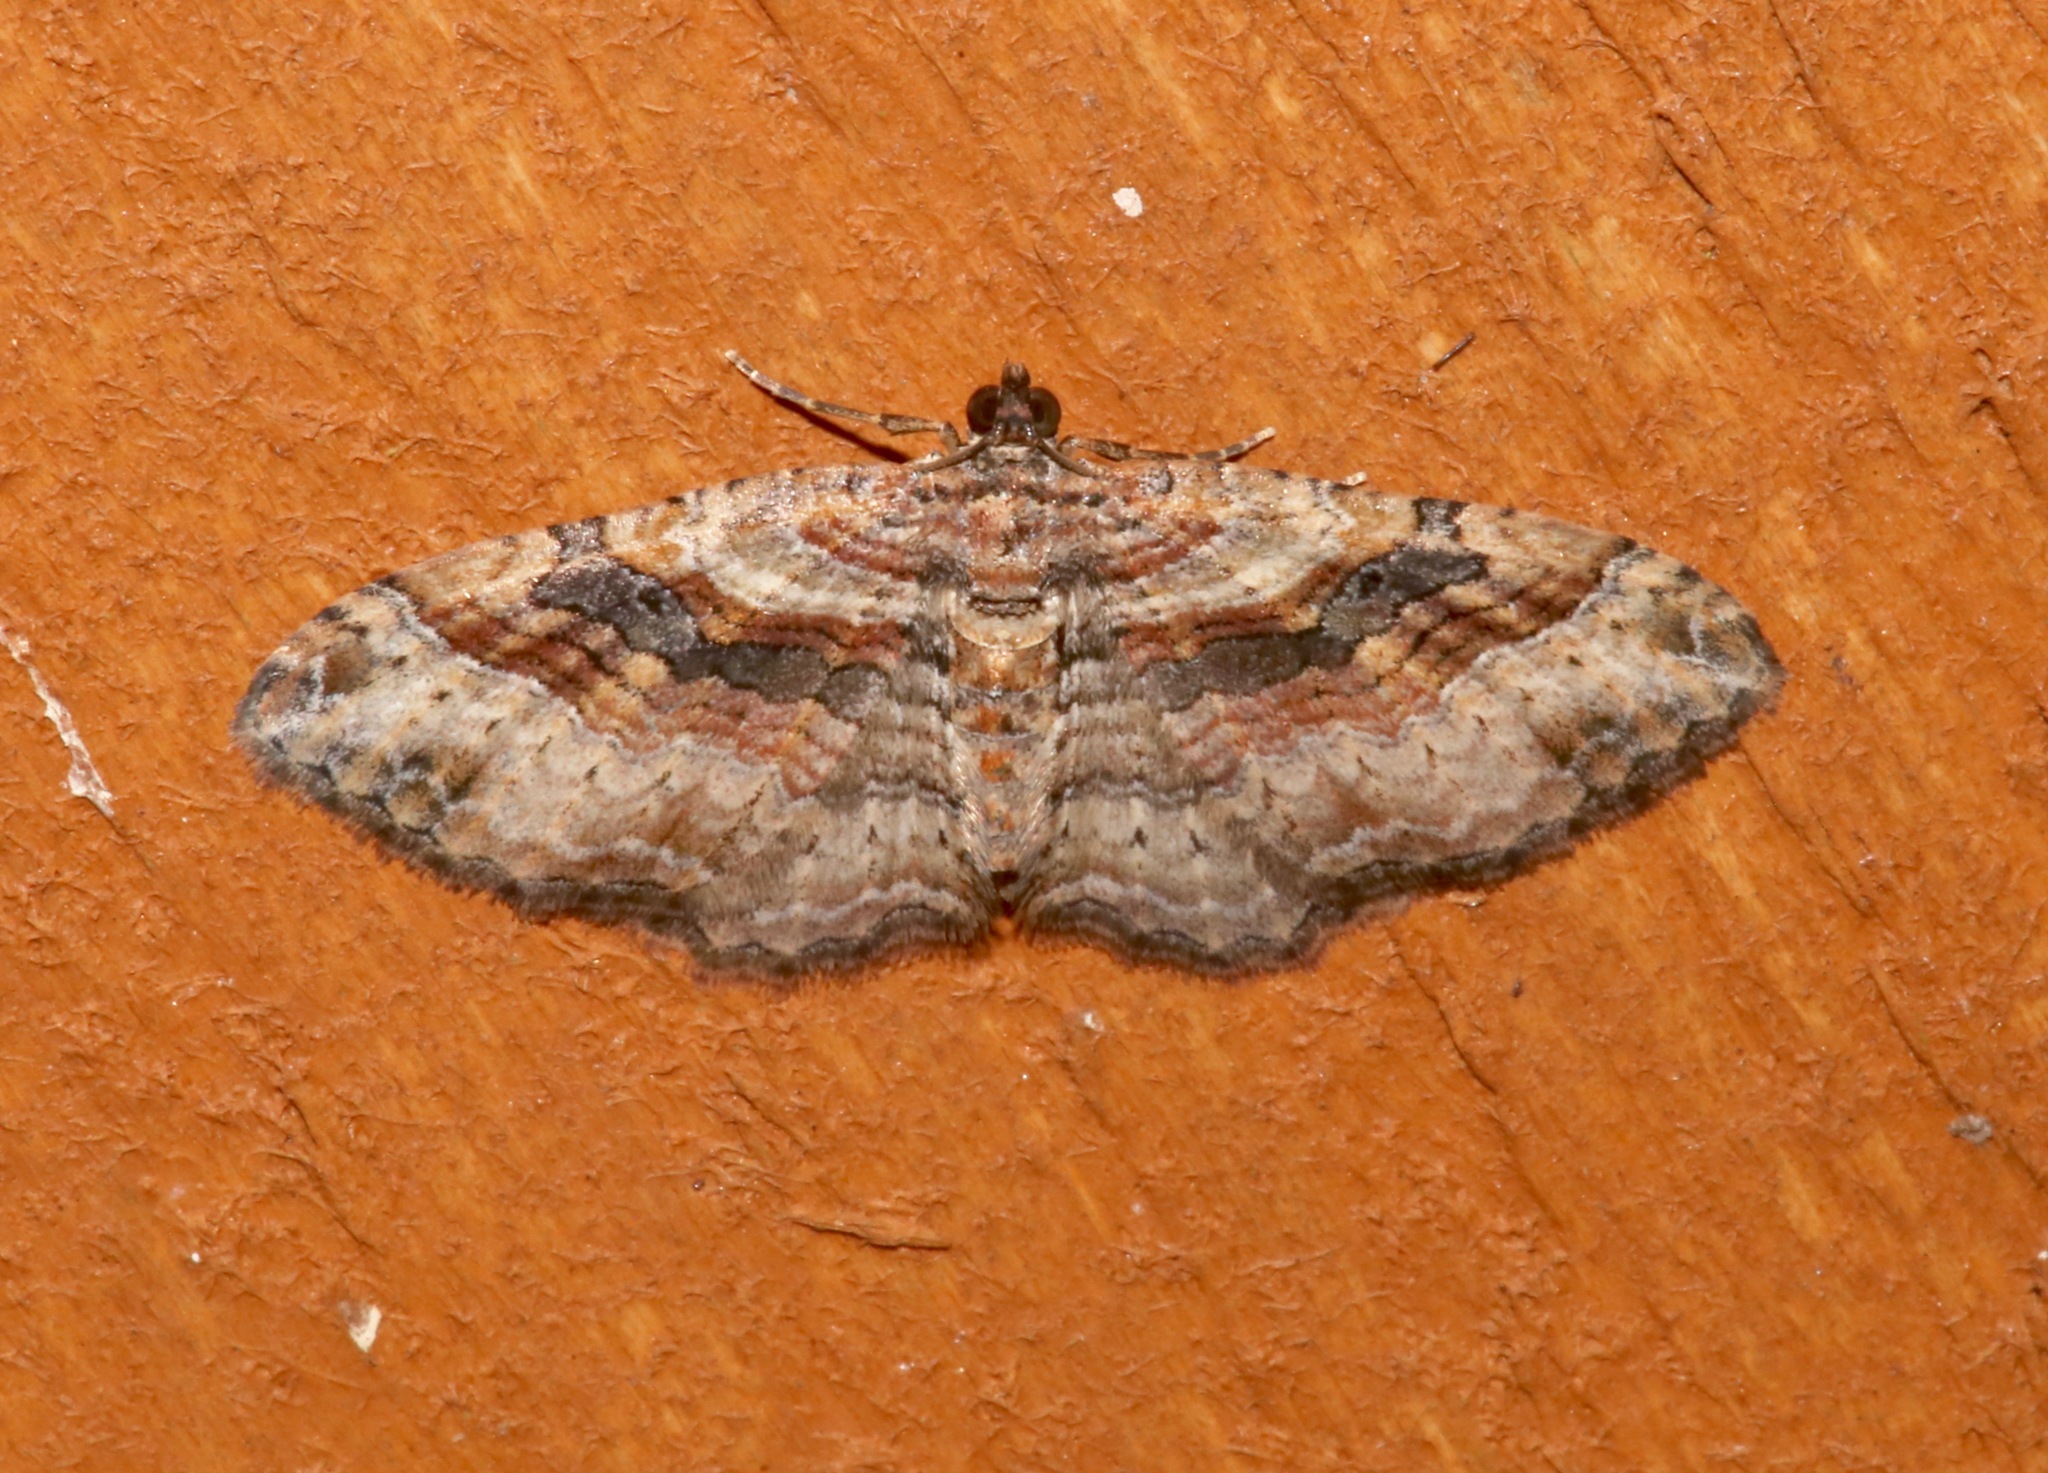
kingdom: Animalia
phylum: Arthropoda
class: Insecta
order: Lepidoptera
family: Geometridae
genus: Costaconvexa
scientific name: Costaconvexa centrostrigaria
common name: Bent-line carpet
